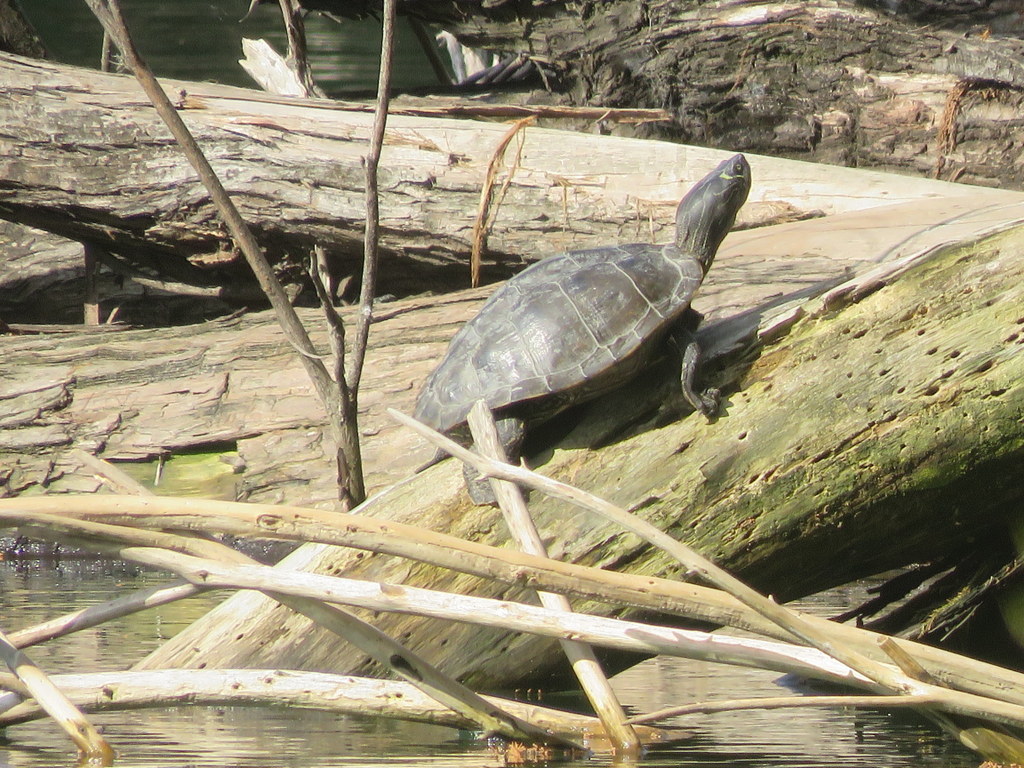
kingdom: Animalia
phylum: Chordata
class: Testudines
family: Emydidae
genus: Graptemys
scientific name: Graptemys pseudogeographica
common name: False map turtle
